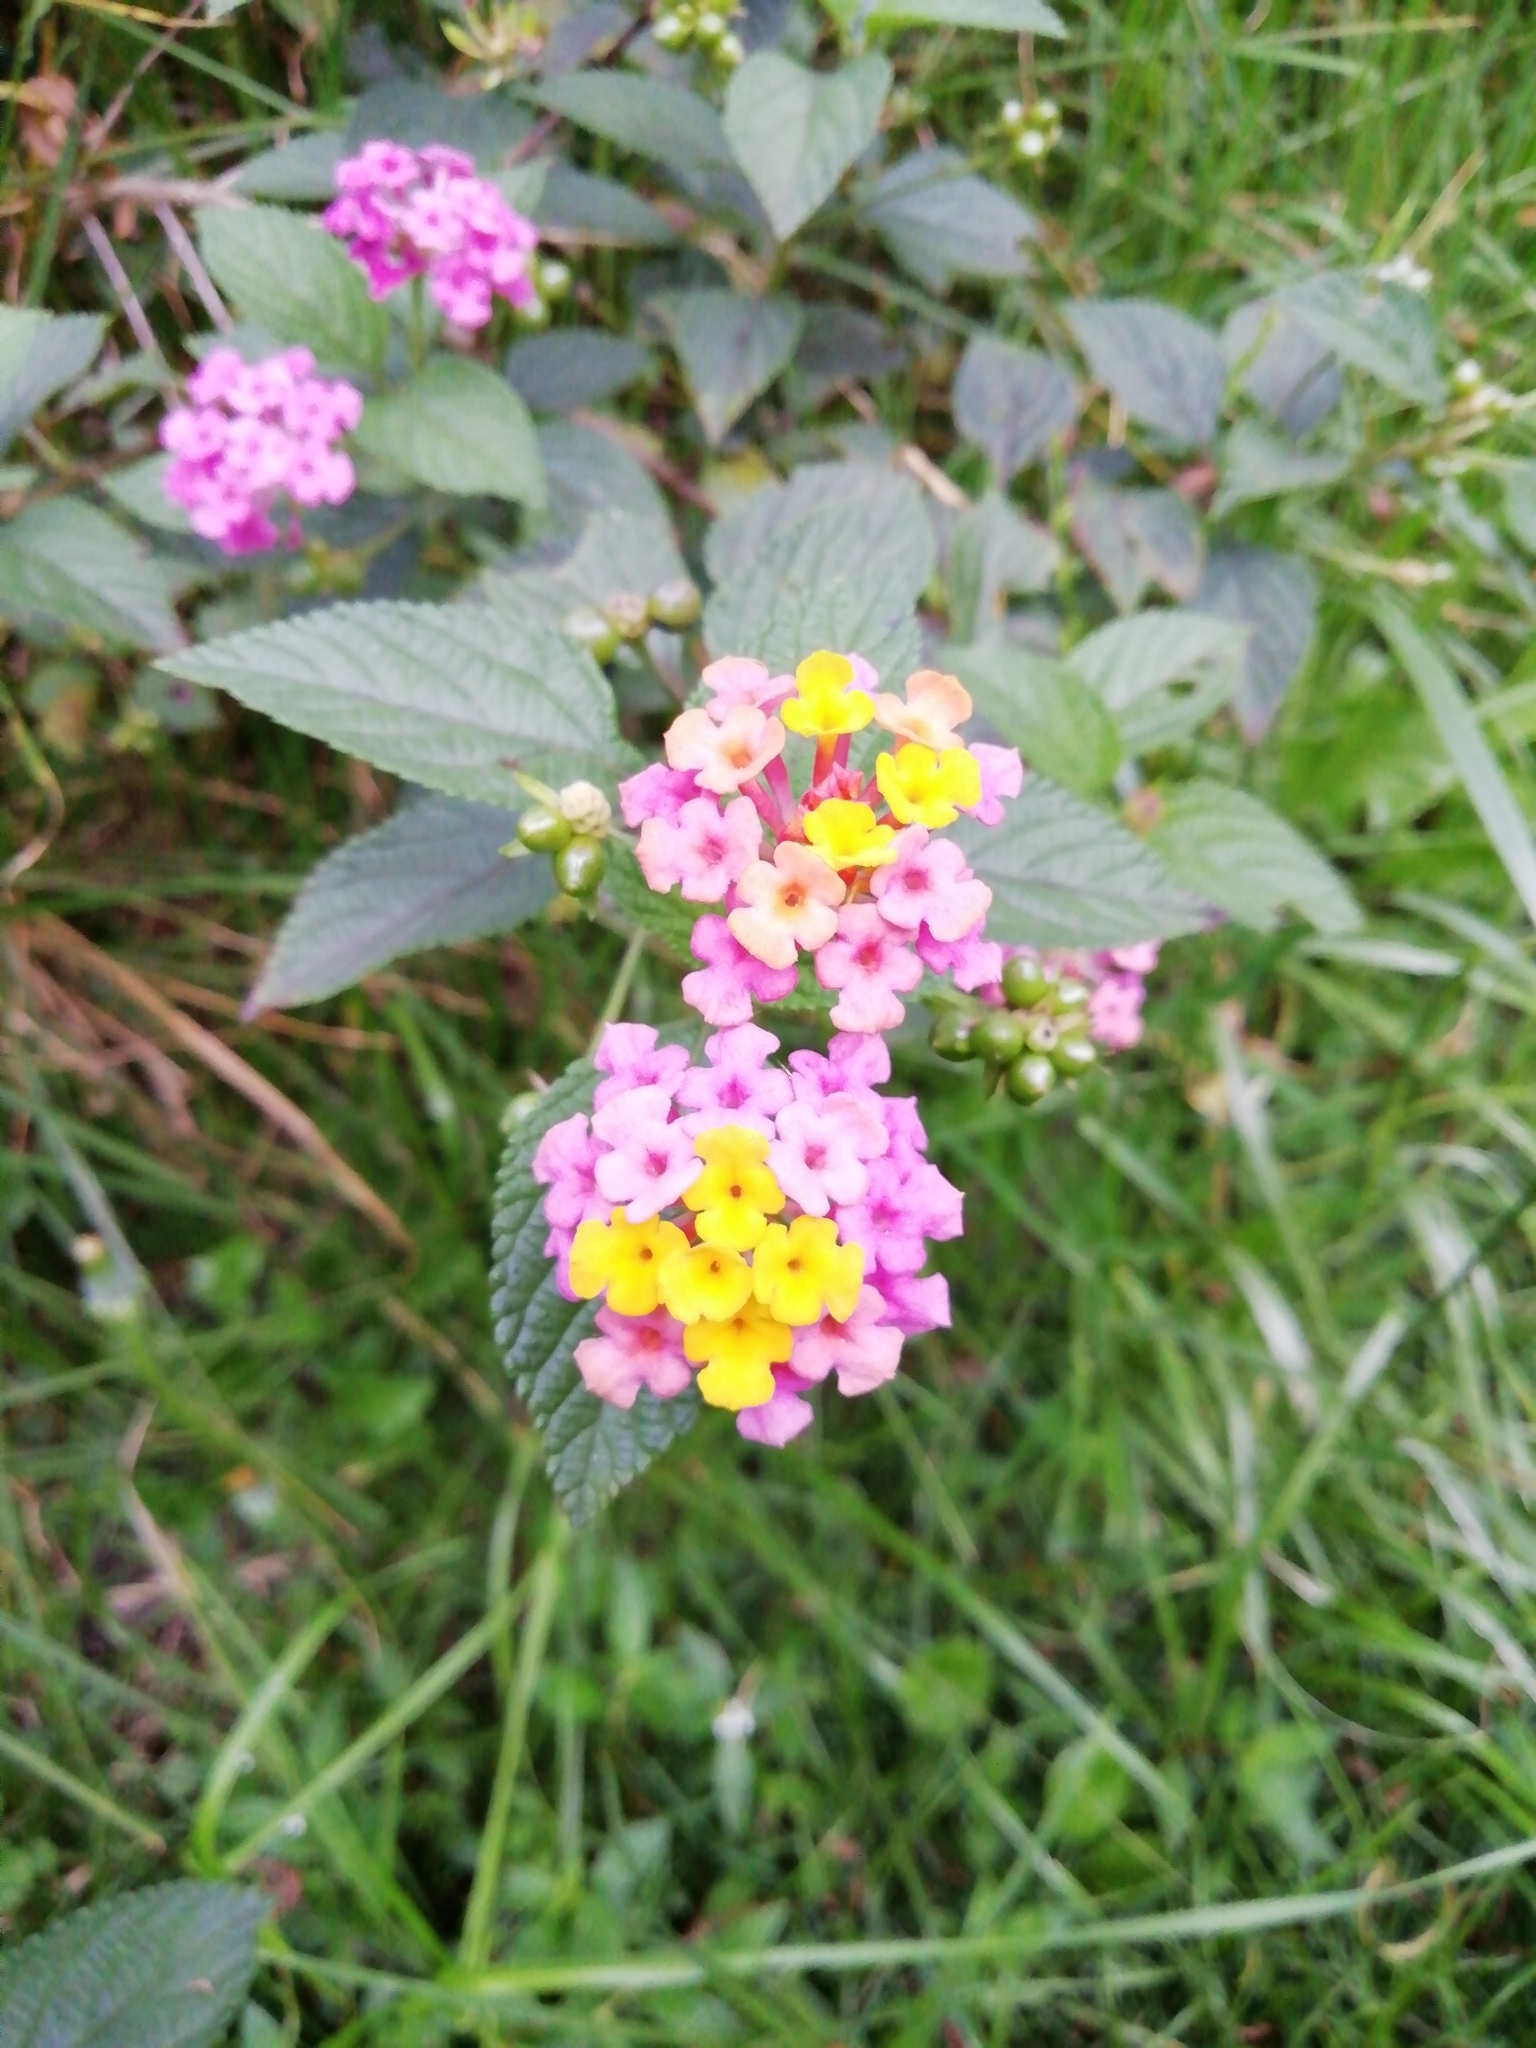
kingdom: Plantae
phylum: Tracheophyta
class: Magnoliopsida
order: Lamiales
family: Verbenaceae
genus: Lantana
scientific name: Lantana camara
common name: Lantana
